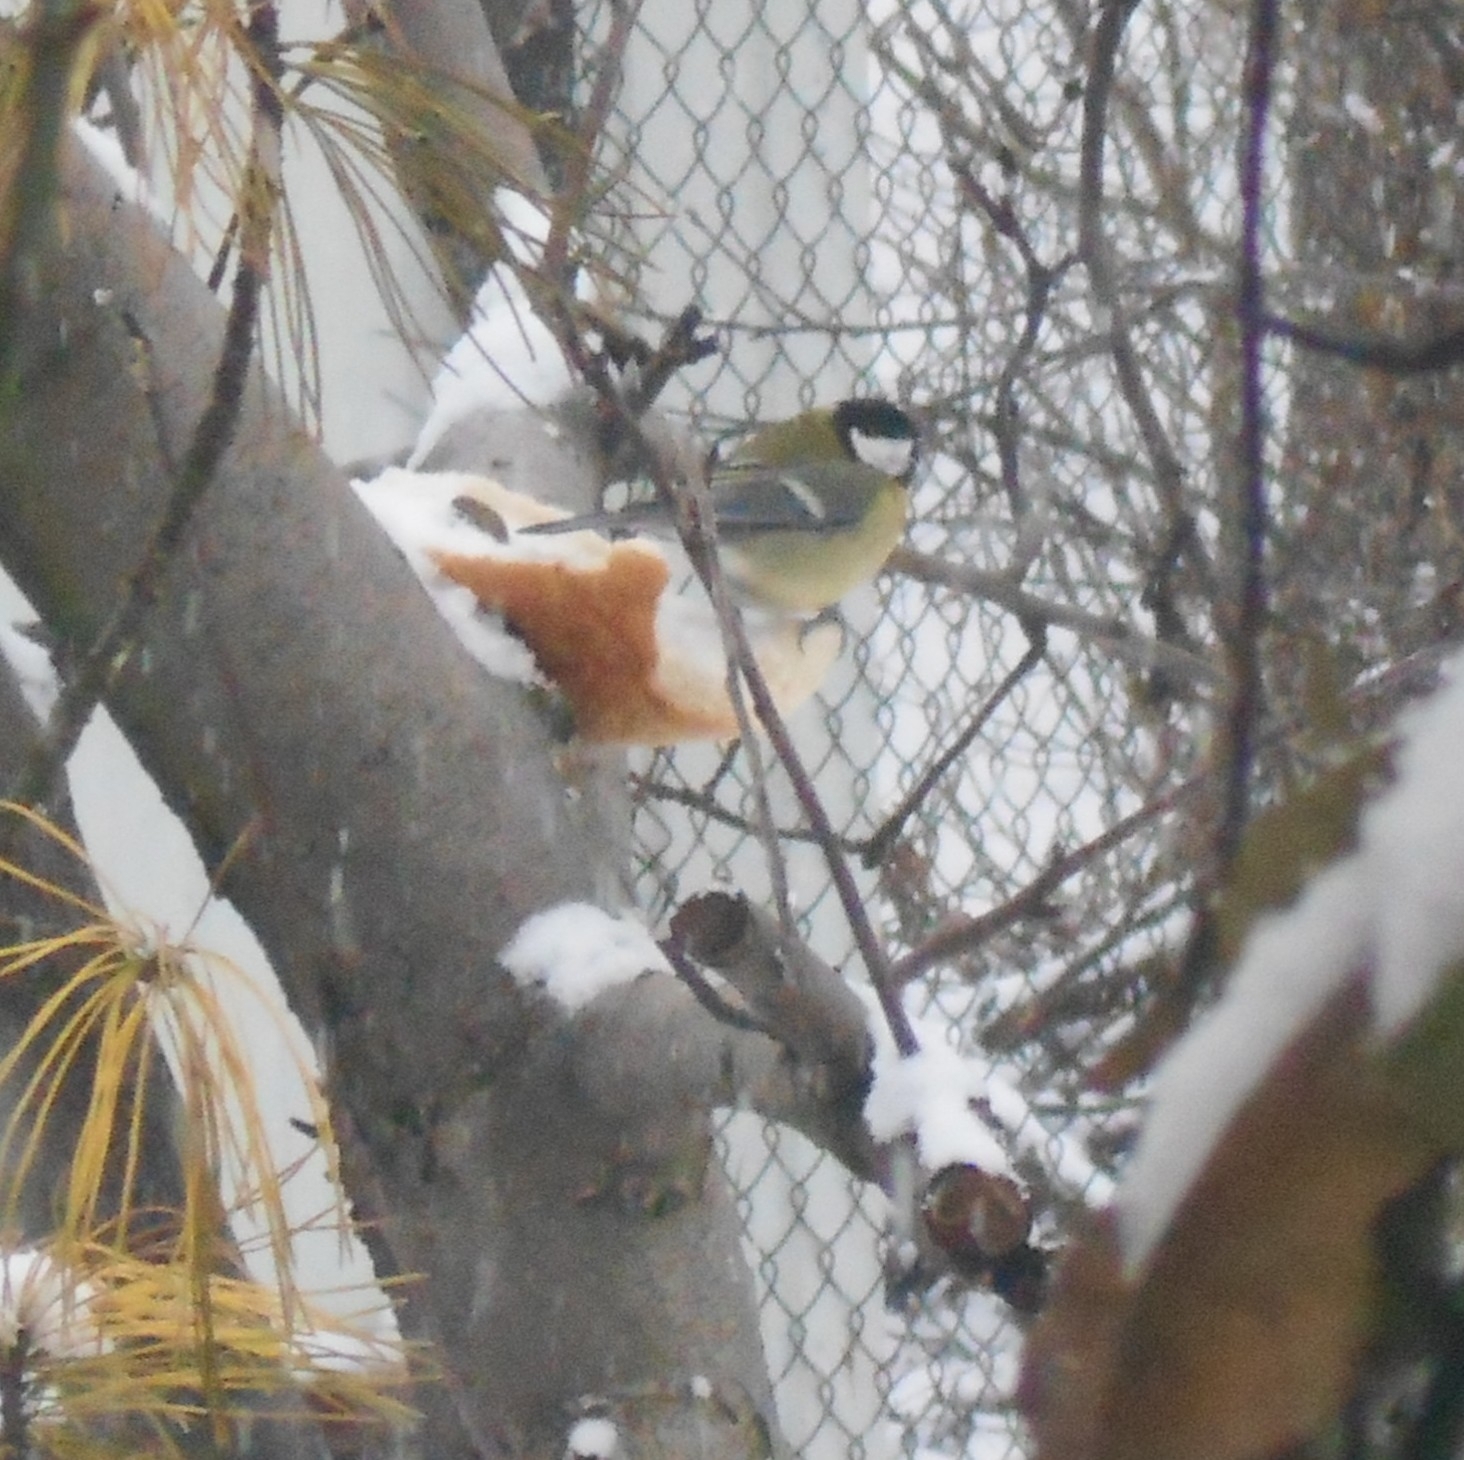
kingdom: Animalia
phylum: Chordata
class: Aves
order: Passeriformes
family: Paridae
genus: Parus
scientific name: Parus major
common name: Great tit
